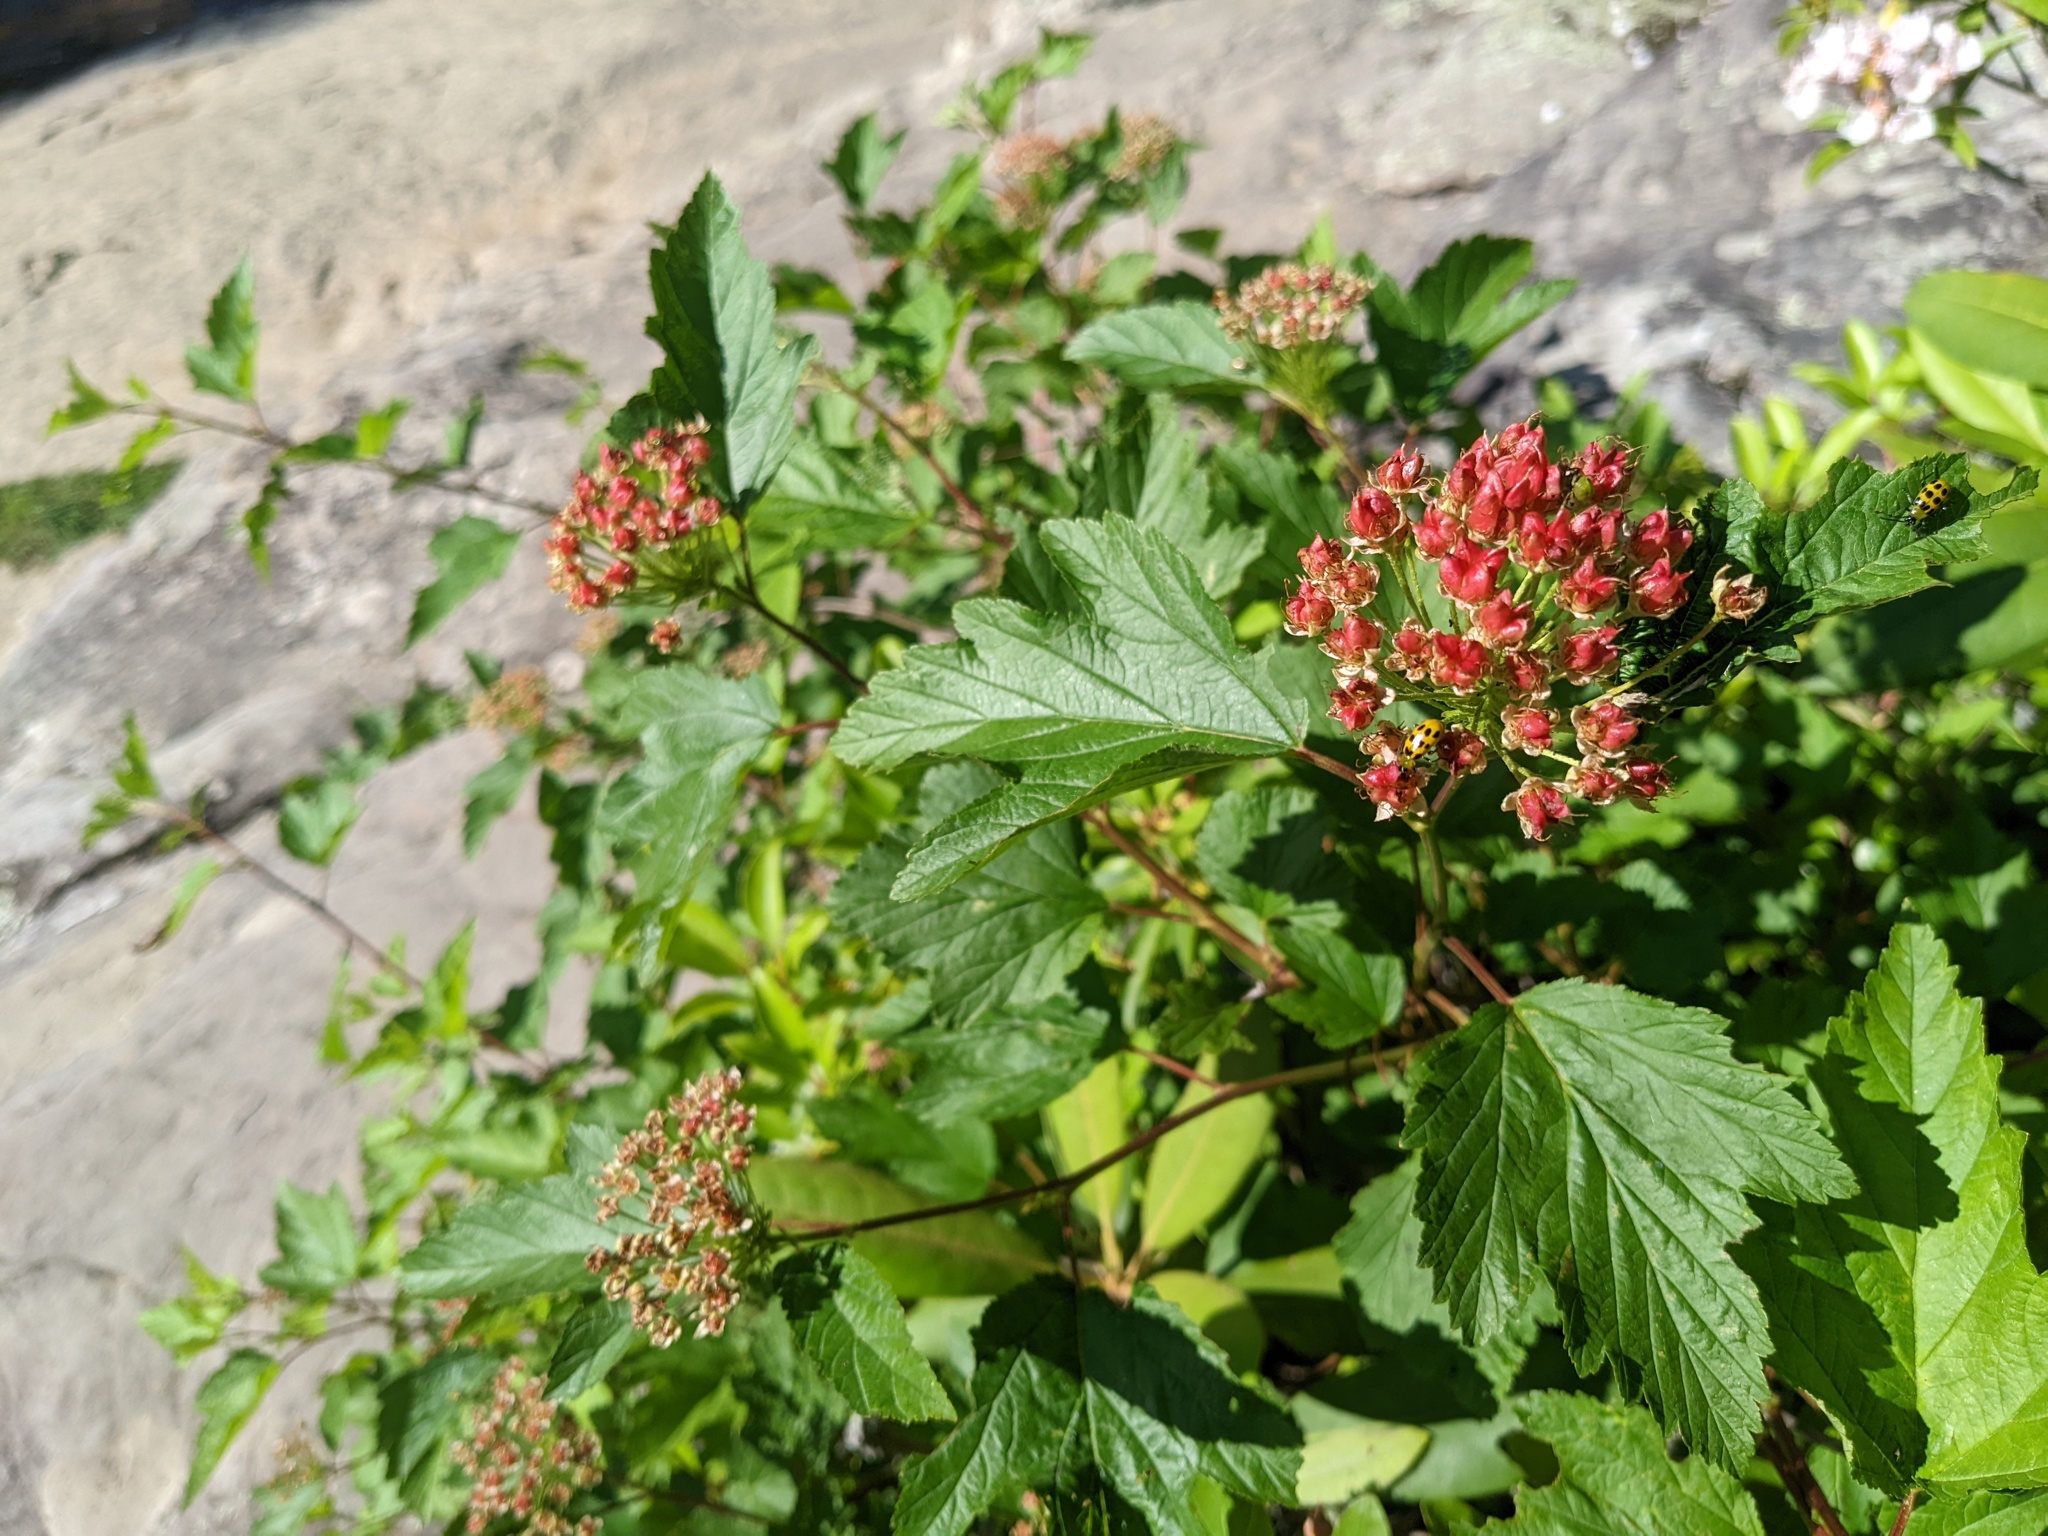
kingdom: Plantae
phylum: Tracheophyta
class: Magnoliopsida
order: Rosales
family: Rosaceae
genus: Physocarpus
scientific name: Physocarpus opulifolius
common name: Ninebark
